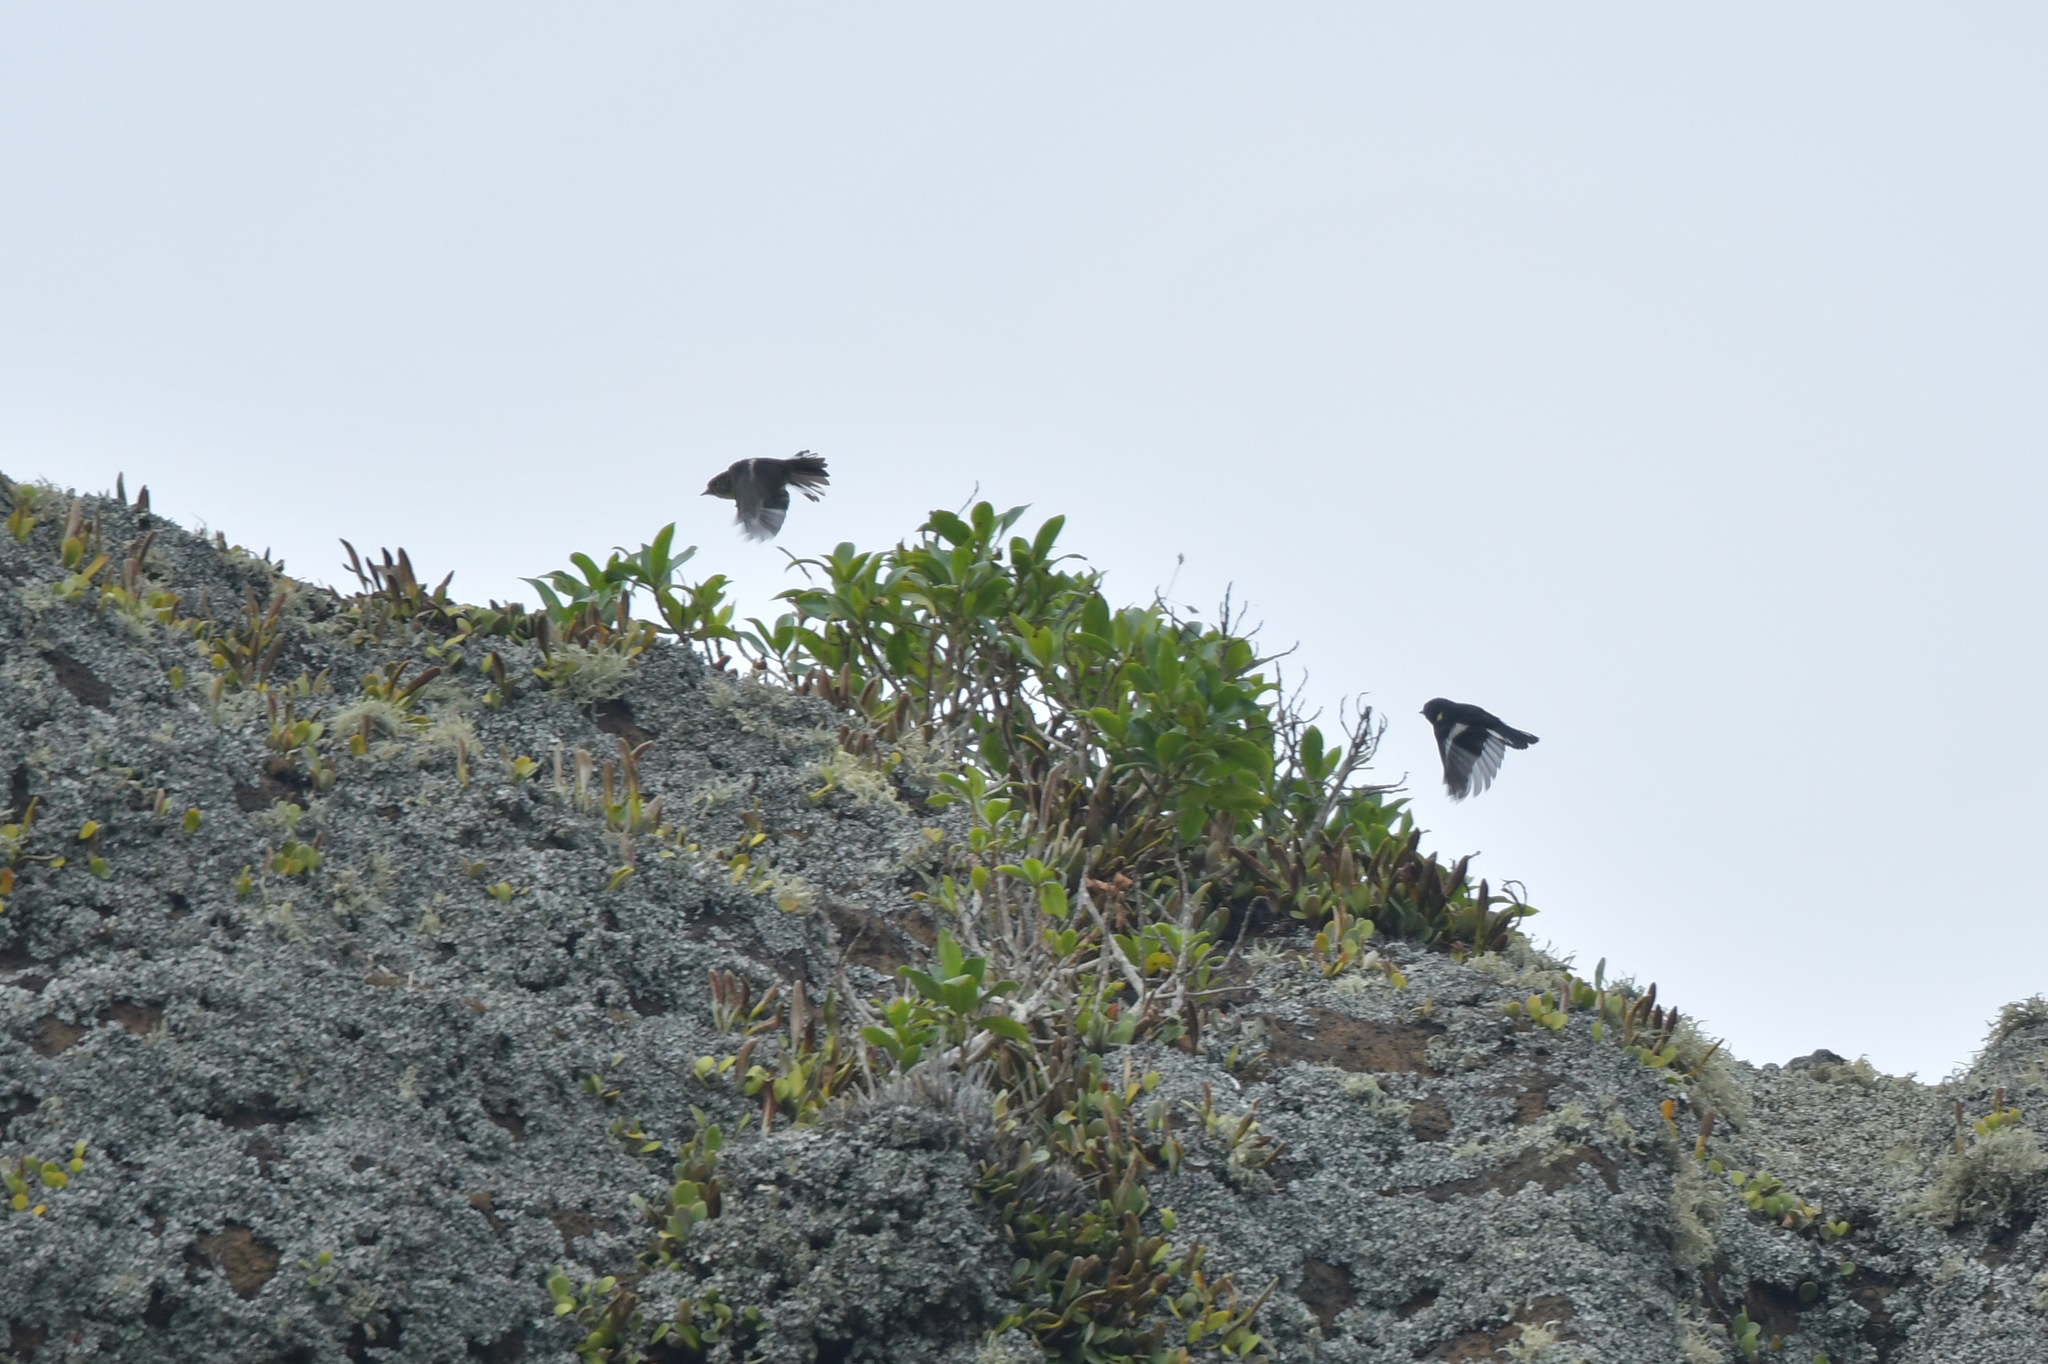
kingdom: Animalia
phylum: Chordata
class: Aves
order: Passeriformes
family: Petroicidae
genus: Petroica
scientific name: Petroica macrocephala
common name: Tomtit
